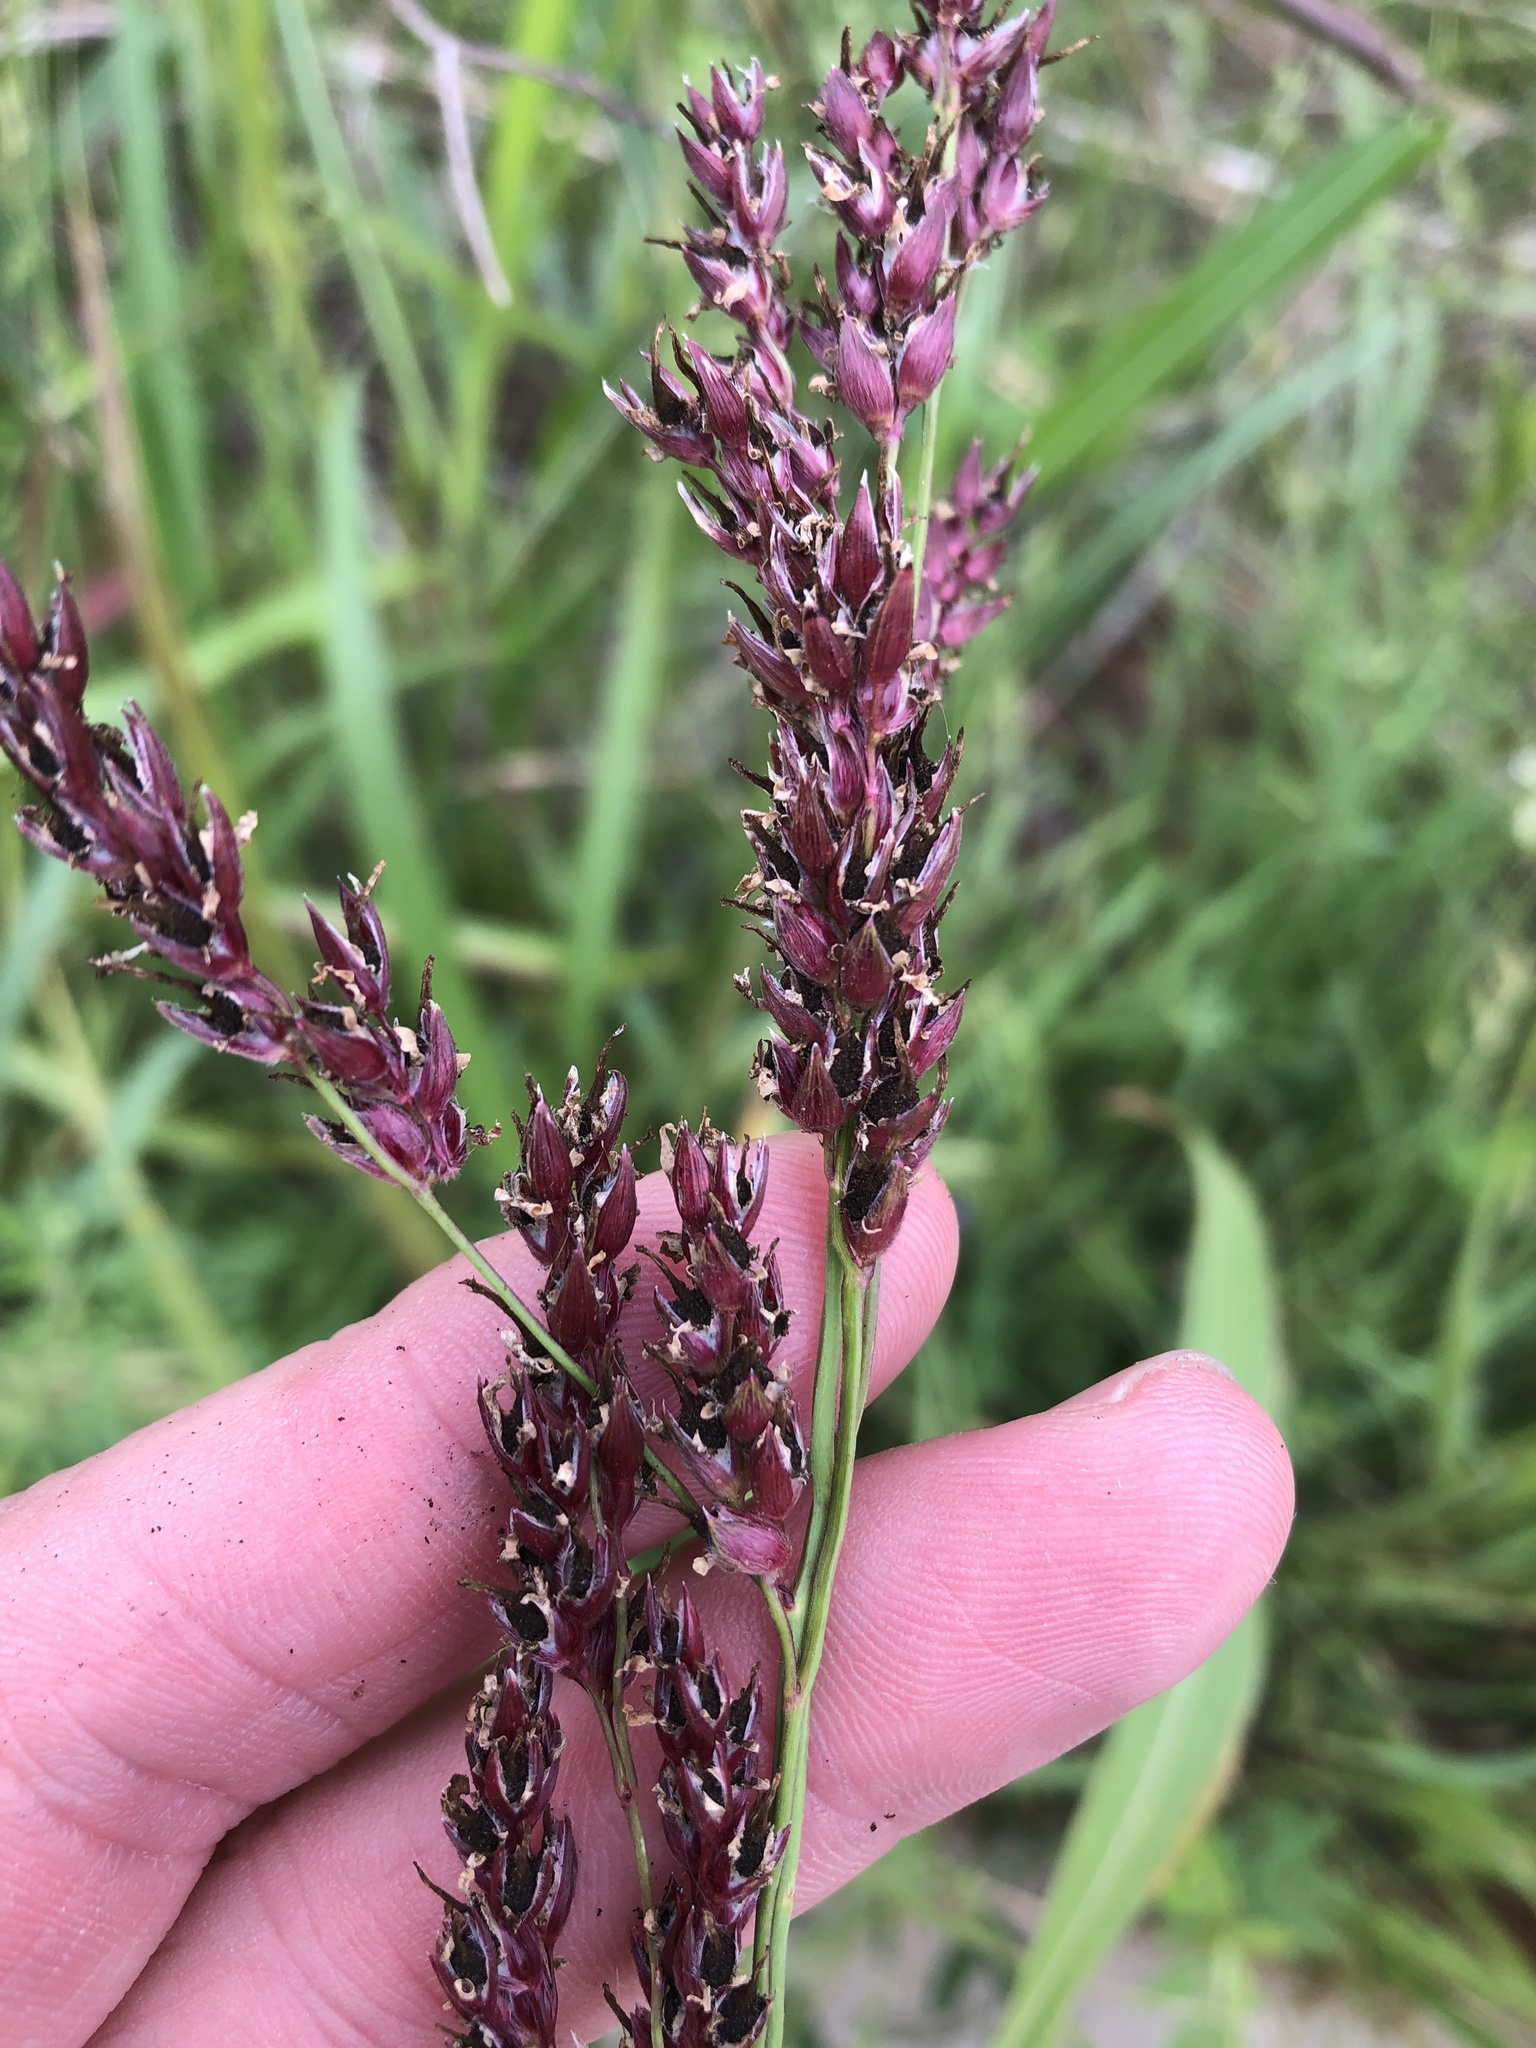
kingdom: Plantae
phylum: Tracheophyta
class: Liliopsida
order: Poales
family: Poaceae
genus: Sorghum
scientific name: Sorghum halepense
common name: Johnson-grass
